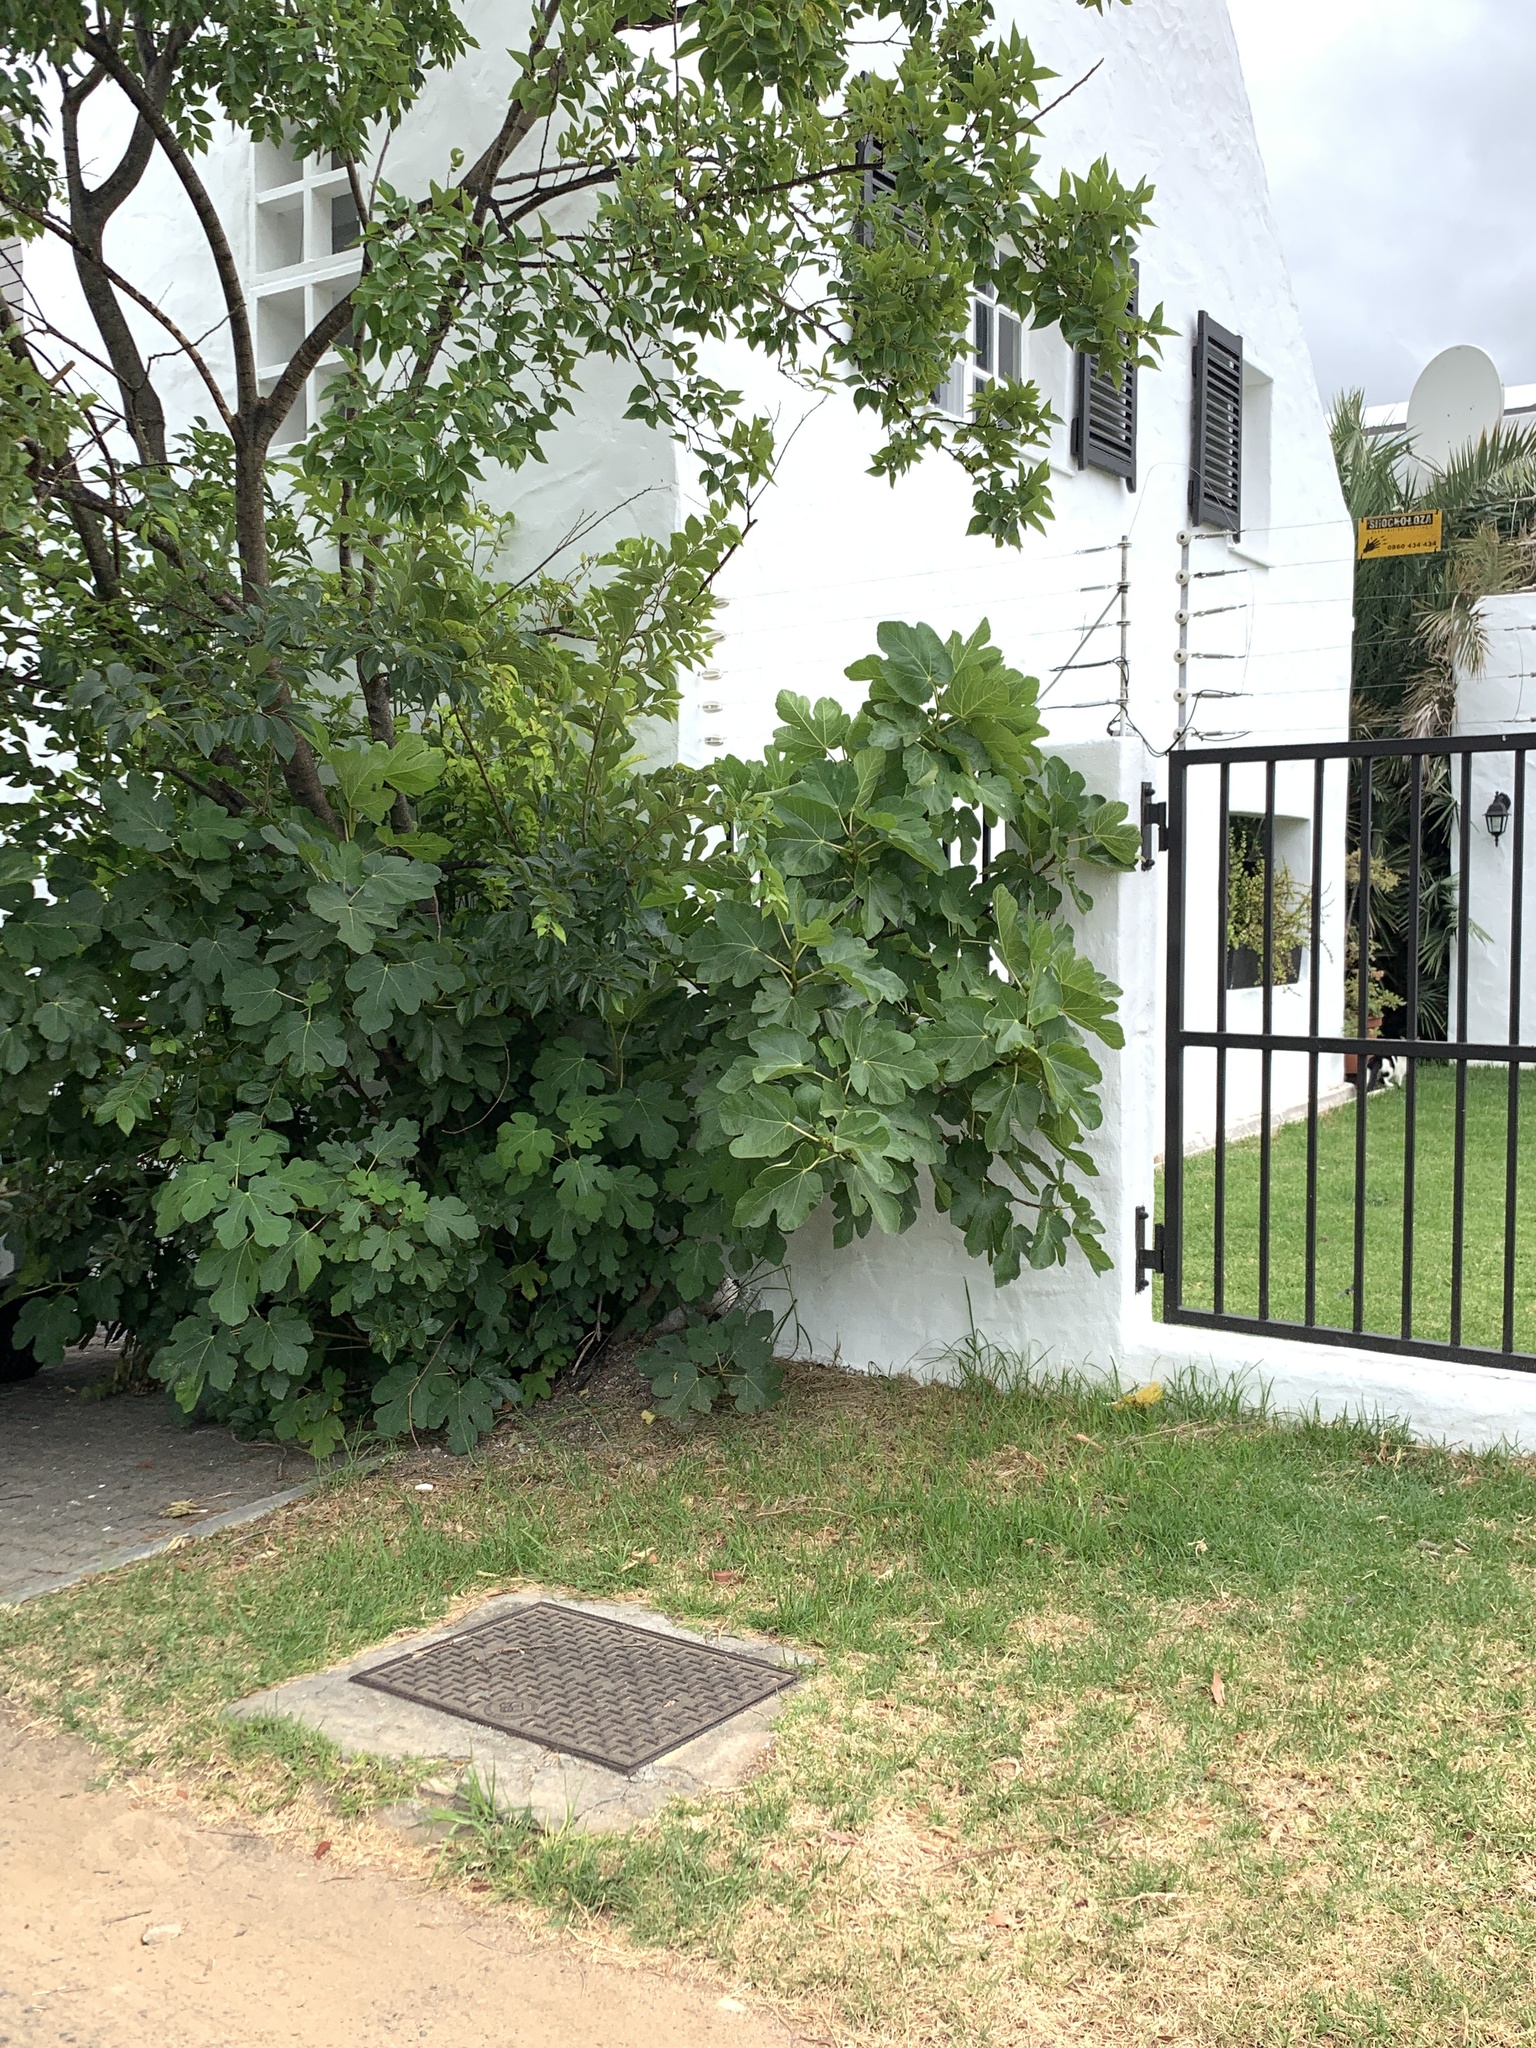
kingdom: Plantae
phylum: Tracheophyta
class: Magnoliopsida
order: Rosales
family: Moraceae
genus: Ficus
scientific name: Ficus carica
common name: Fig
